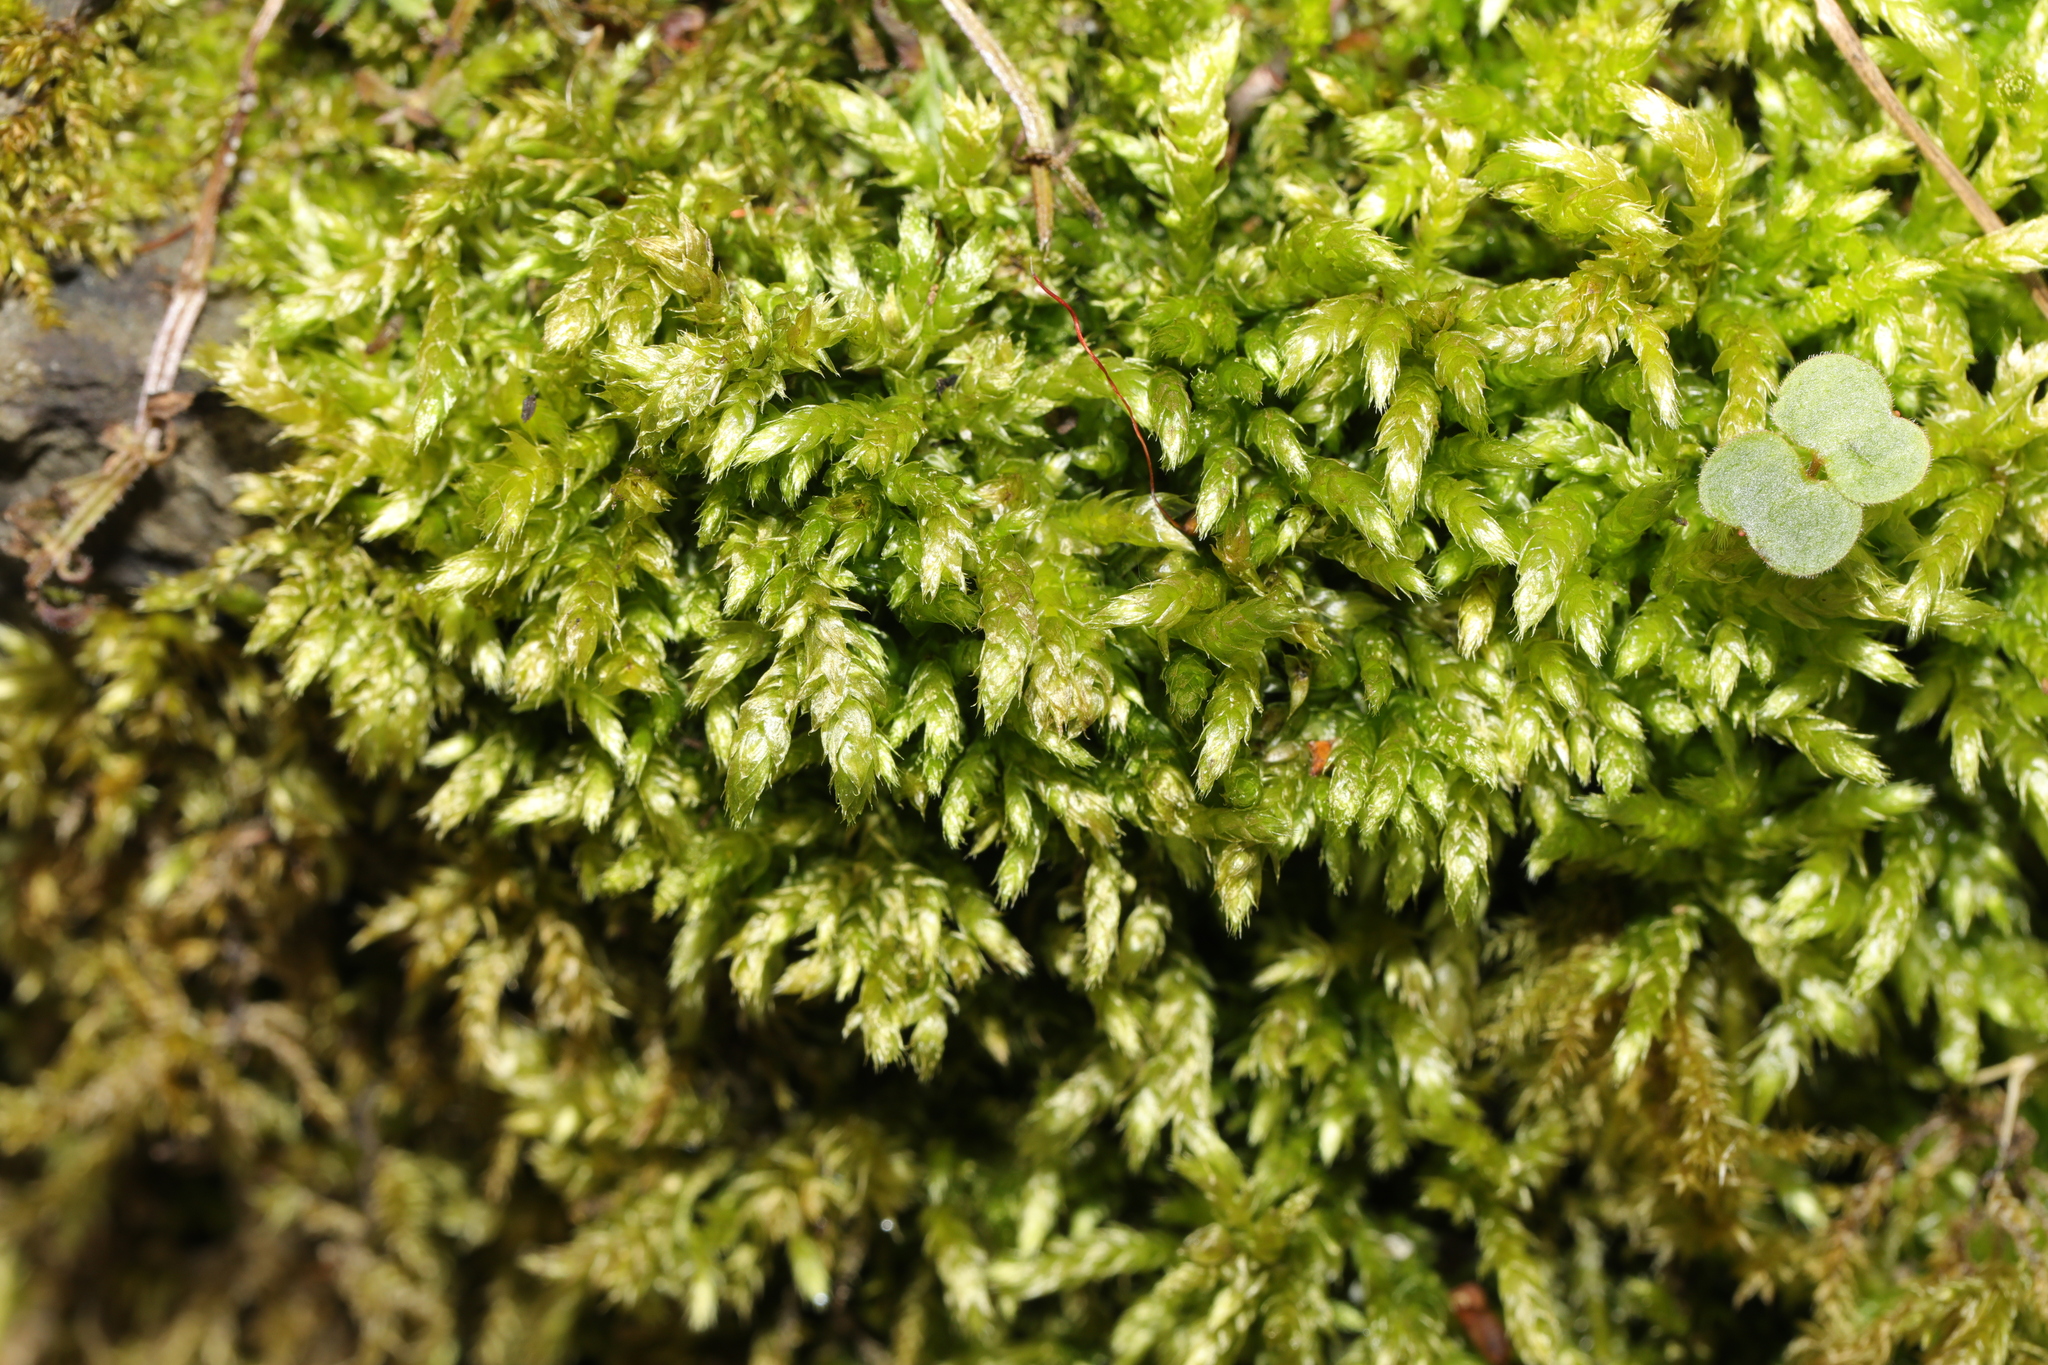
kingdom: Plantae
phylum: Bryophyta
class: Bryopsida
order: Hypnales
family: Brachytheciaceae
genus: Brachythecium
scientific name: Brachythecium rutabulum
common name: Rough-stalked feather-moss
